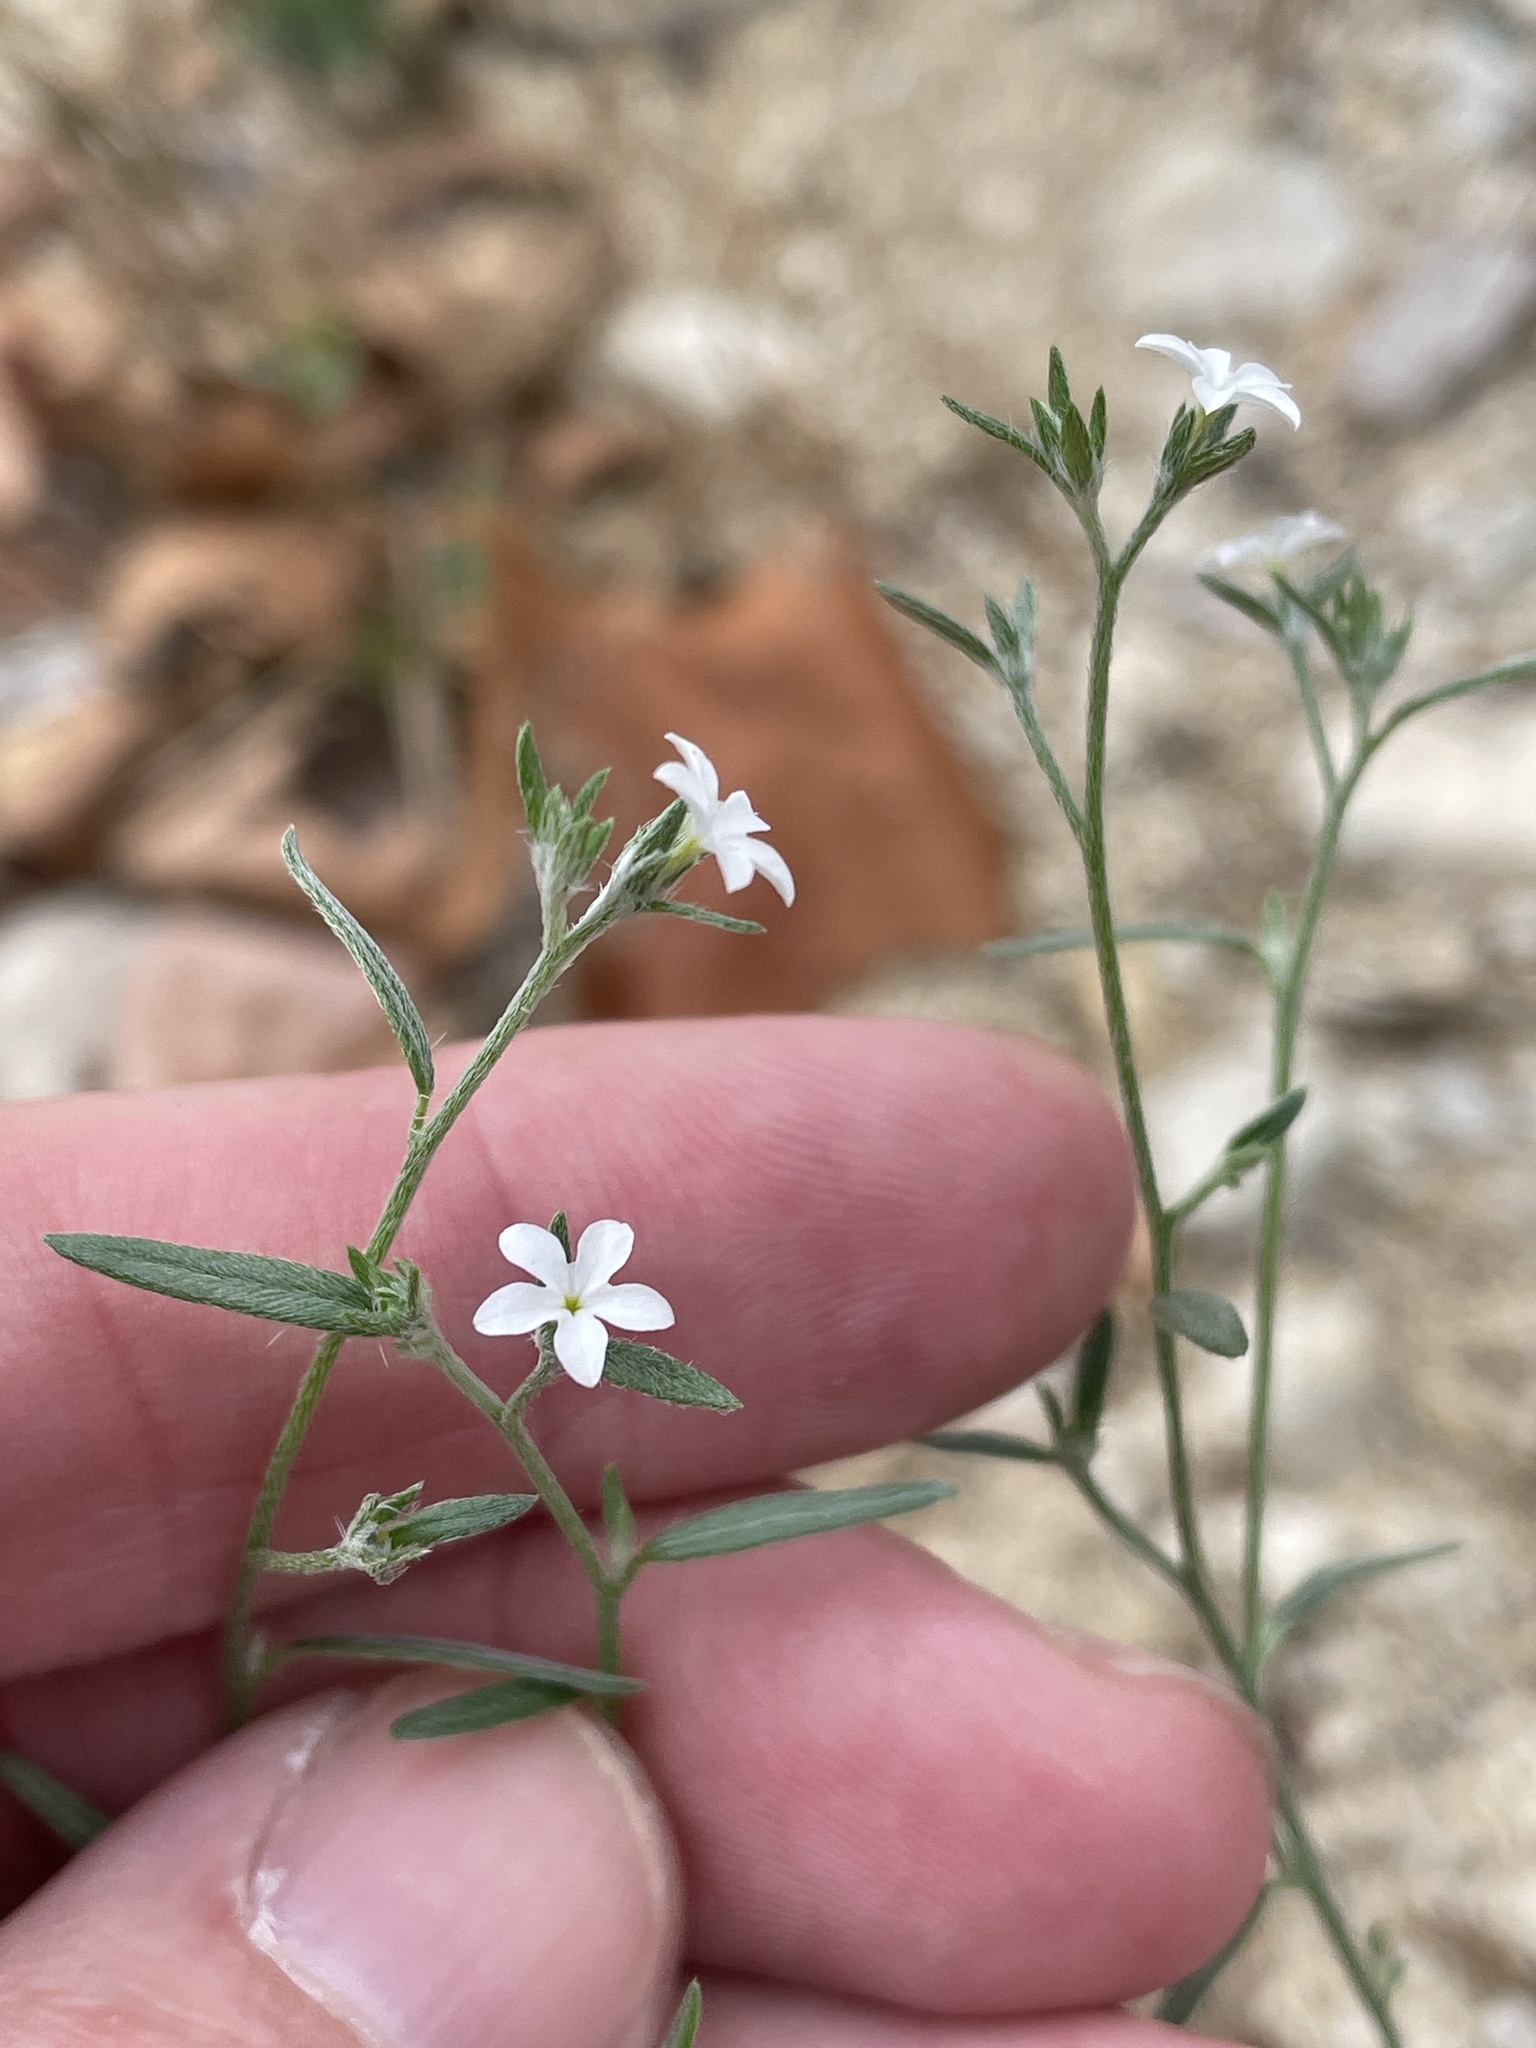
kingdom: Plantae
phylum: Tracheophyta
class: Magnoliopsida
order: Boraginales
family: Heliotropiaceae
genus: Euploca
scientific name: Euploca tenella
